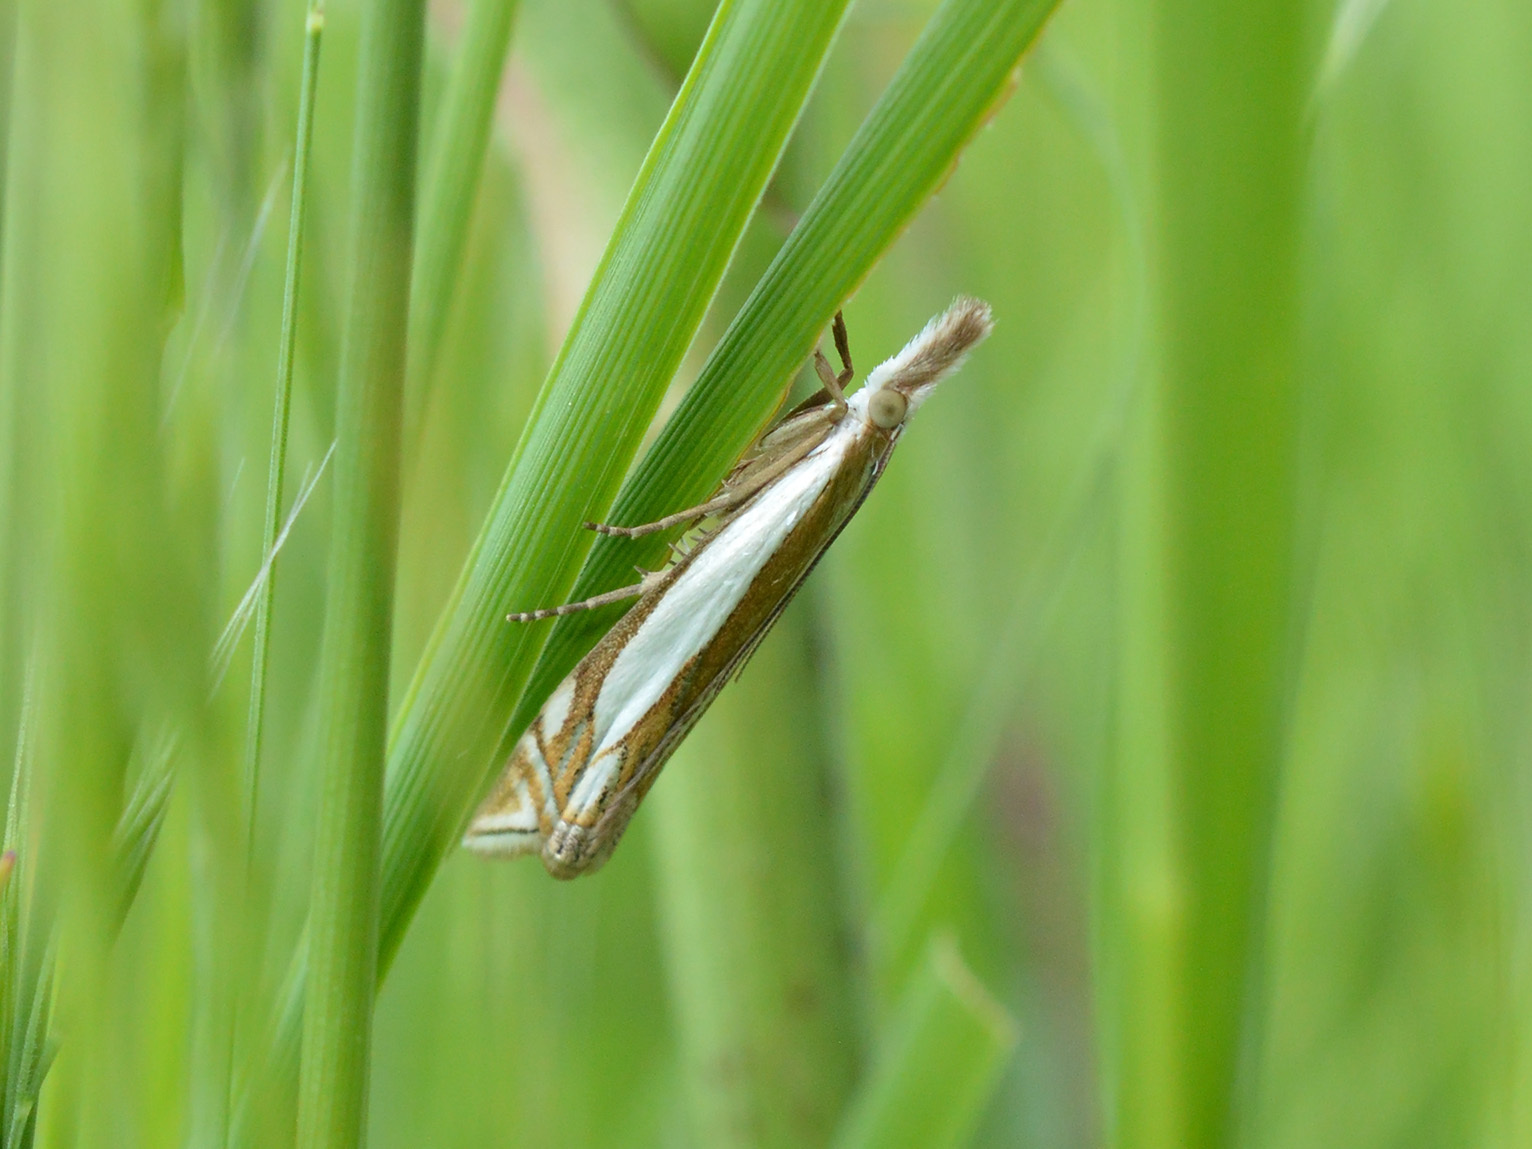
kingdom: Animalia
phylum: Arthropoda
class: Insecta
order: Lepidoptera
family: Crambidae
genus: Crambus
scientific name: Crambus pascuella
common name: Inlaid grass-veneer
